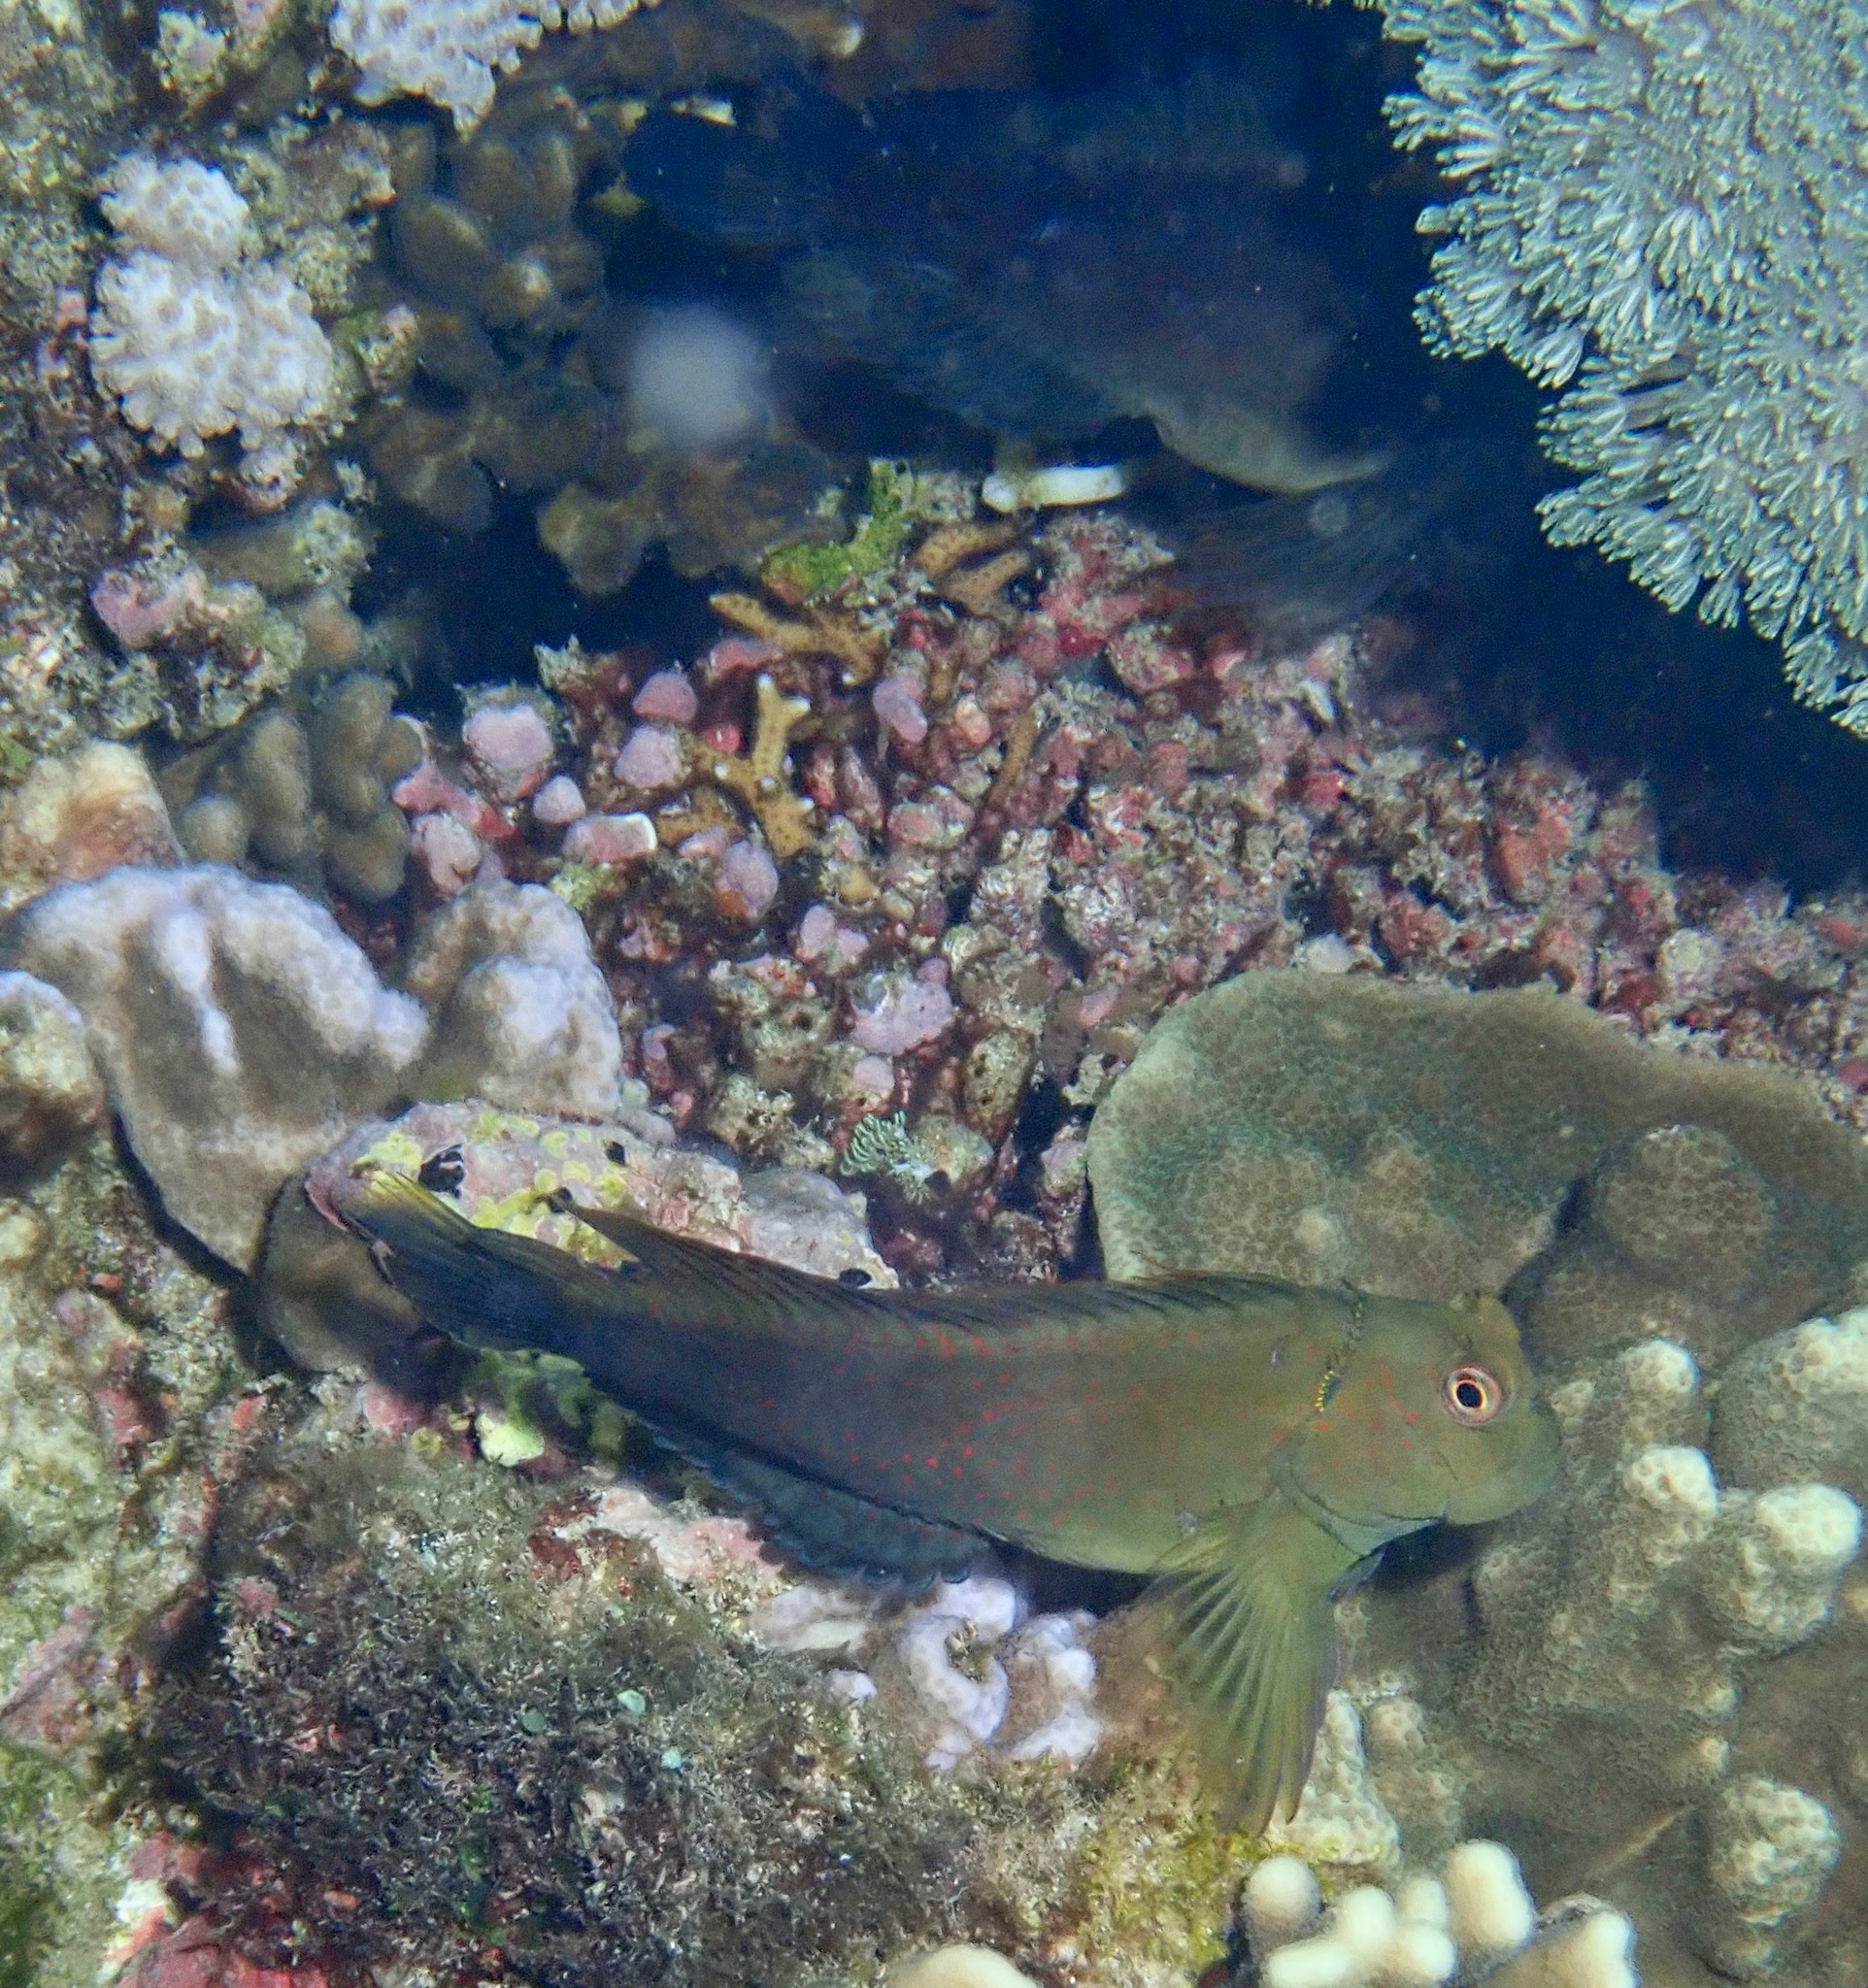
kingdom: Animalia
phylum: Chordata
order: Perciformes
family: Blenniidae
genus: Cirripectes
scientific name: Cirripectes chelomatus
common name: Lady musgrave blenny
